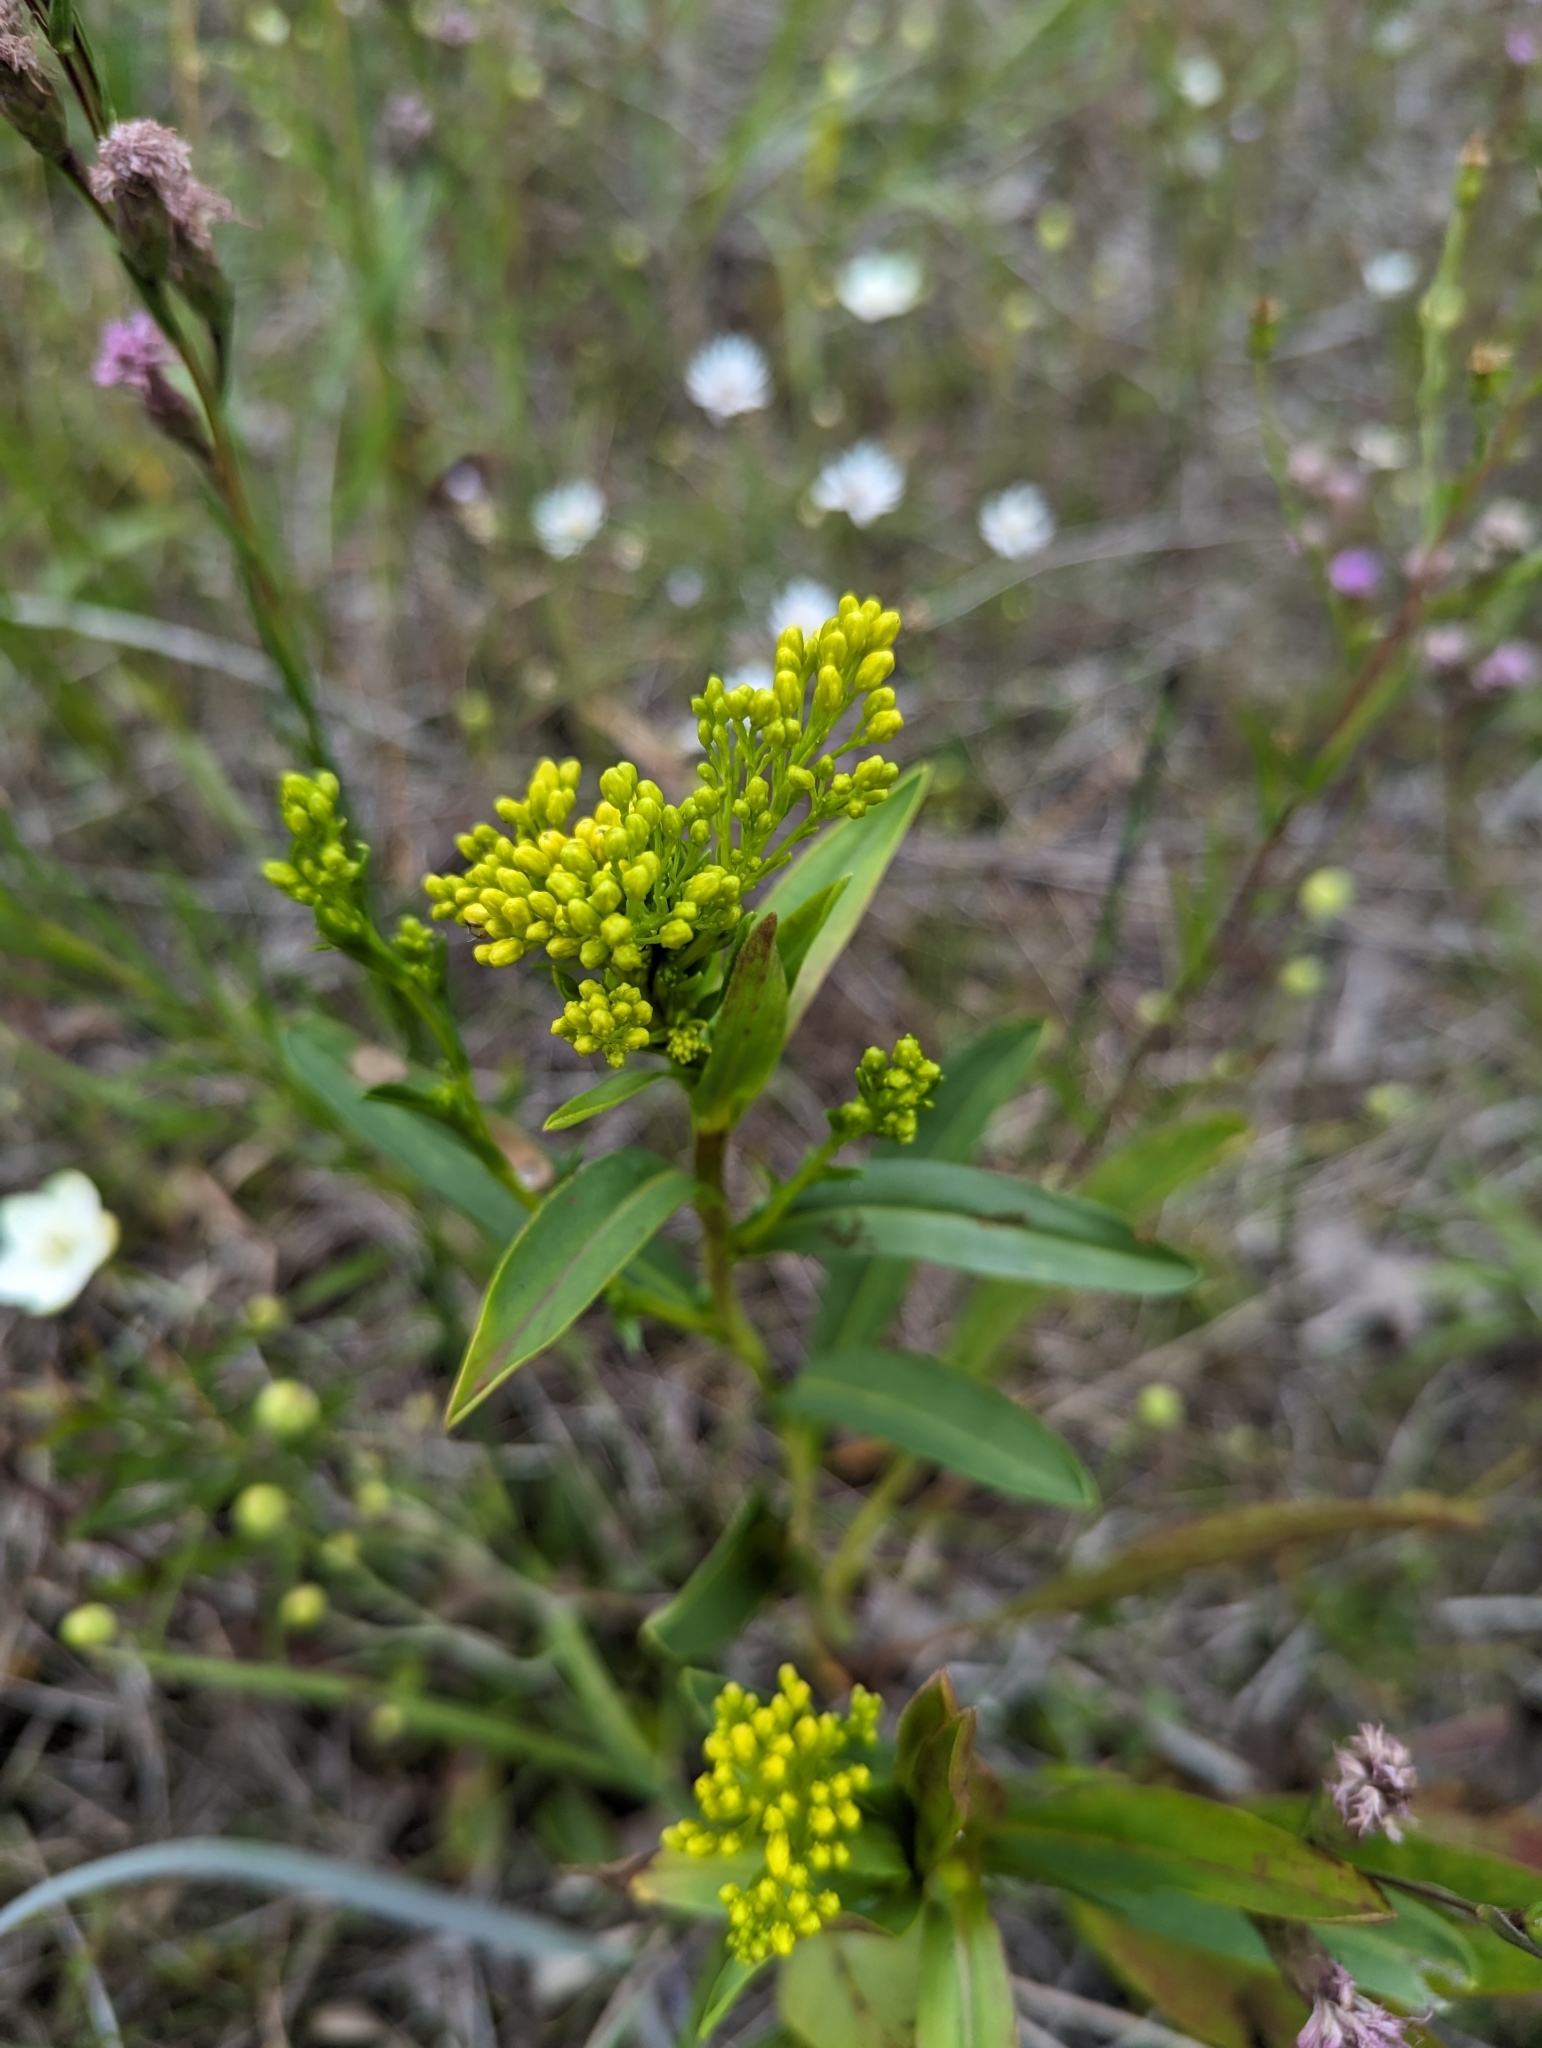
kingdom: Plantae
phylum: Tracheophyta
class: Magnoliopsida
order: Asterales
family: Asteraceae
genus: Solidago
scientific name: Solidago ohioensis
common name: Ohio goldenrod
